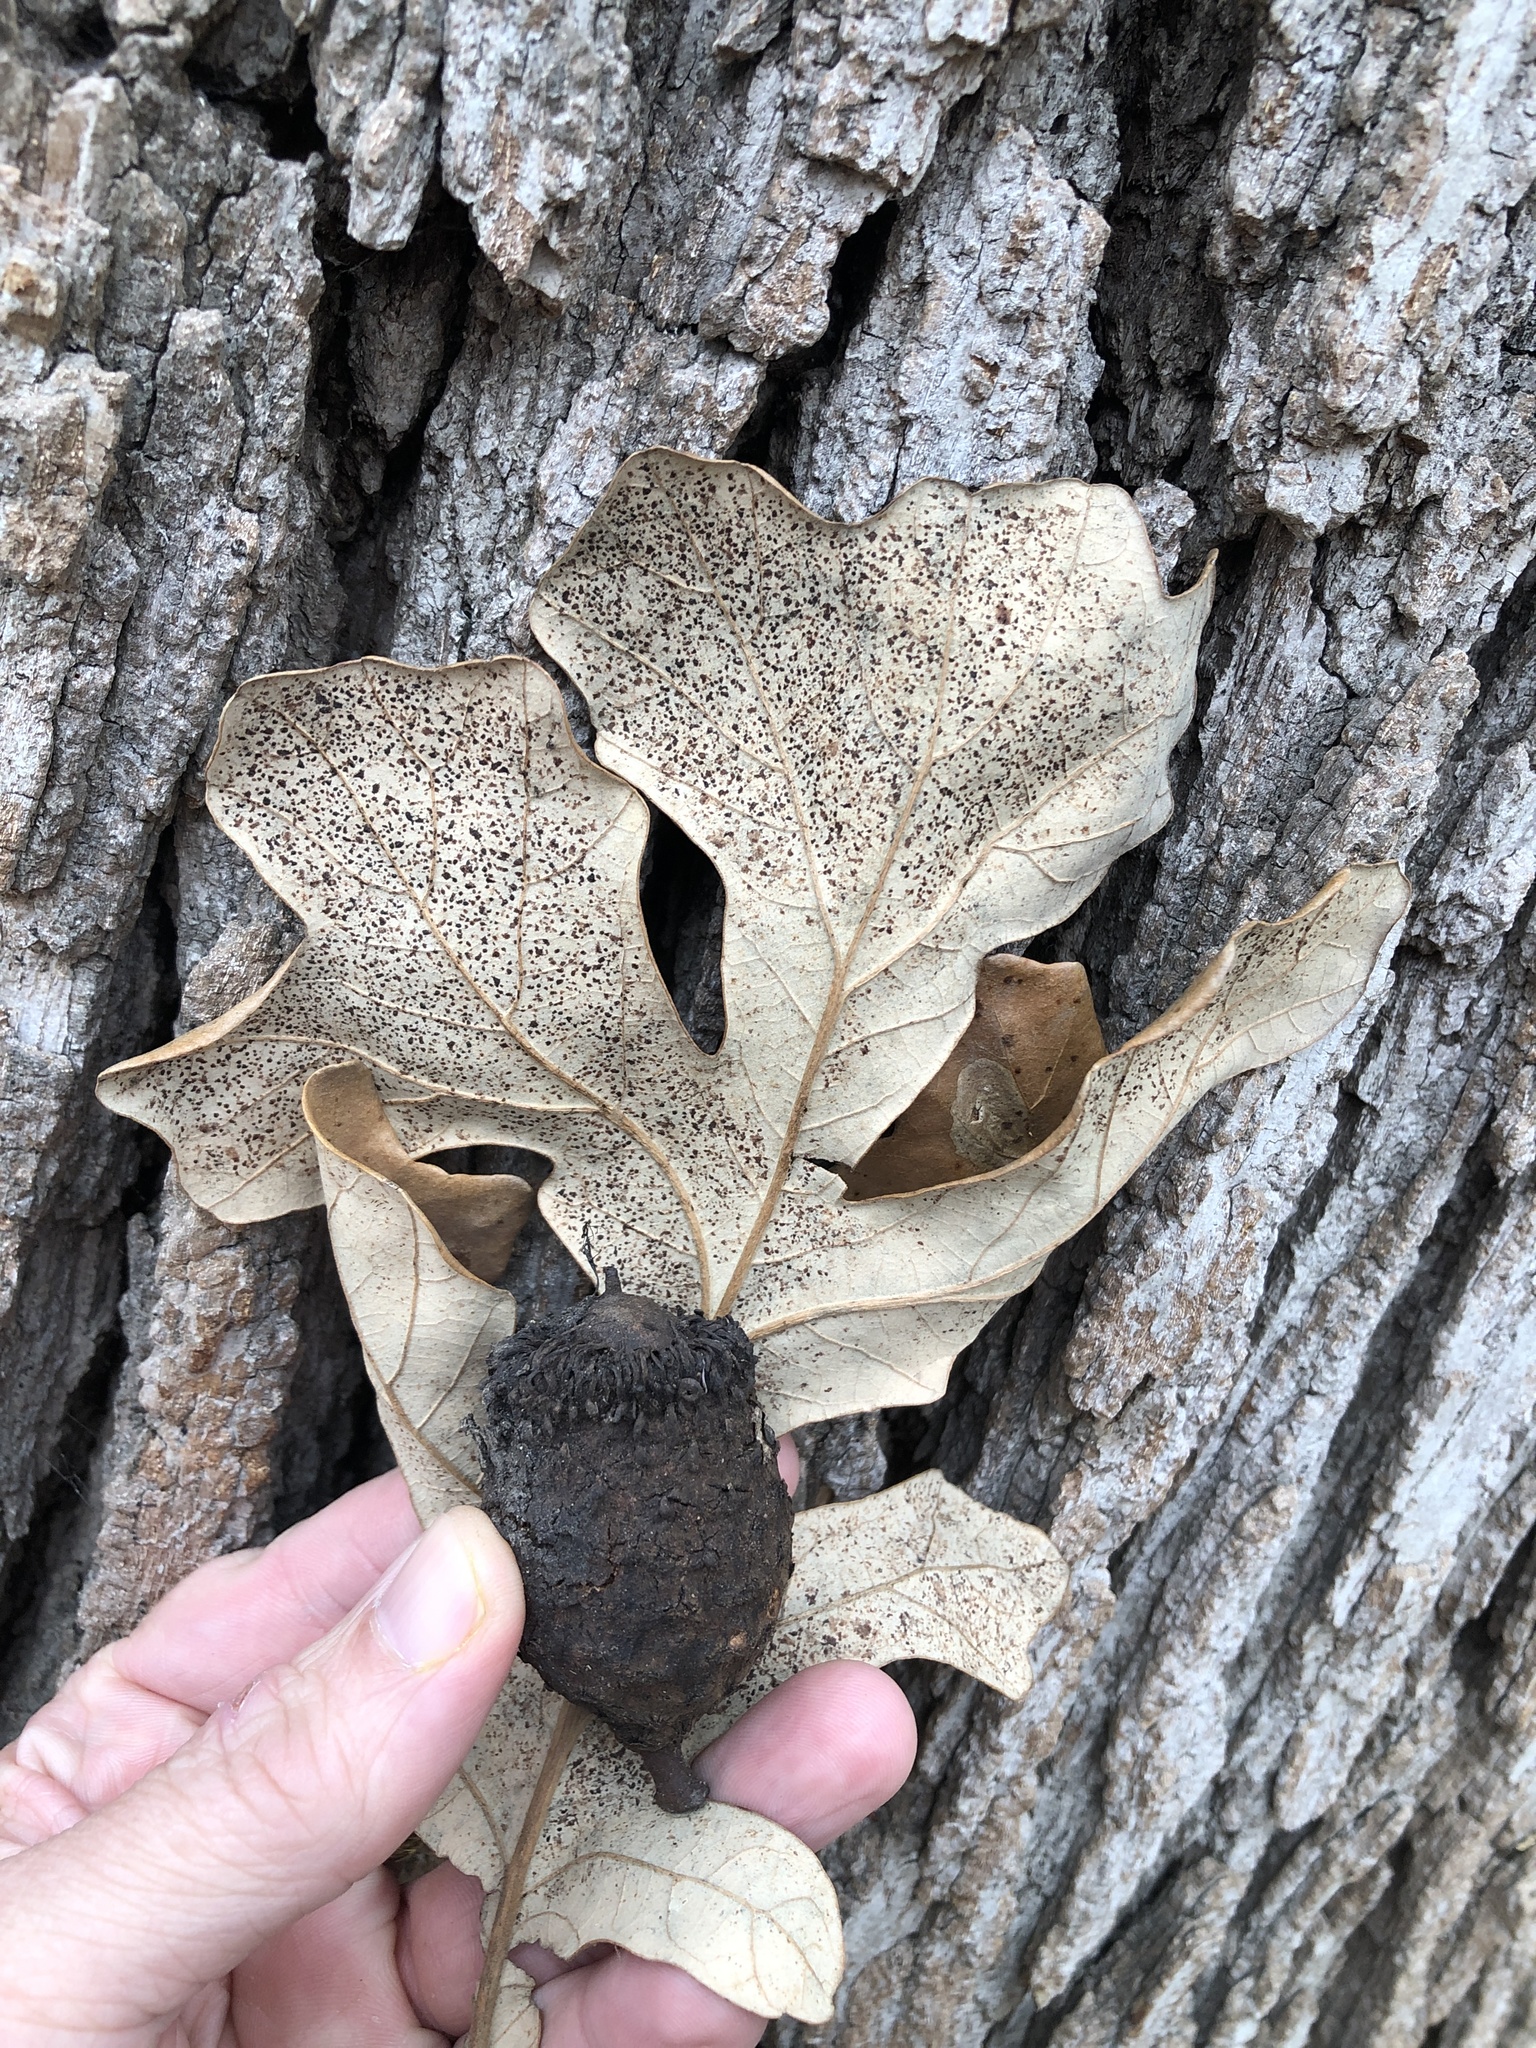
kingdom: Plantae
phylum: Tracheophyta
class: Magnoliopsida
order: Fagales
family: Fagaceae
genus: Quercus
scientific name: Quercus macrocarpa
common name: Bur oak
